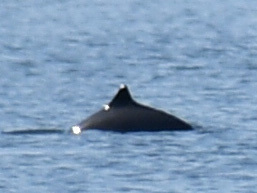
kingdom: Animalia
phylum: Chordata
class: Mammalia
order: Cetacea
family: Phocoenidae
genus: Phocoena
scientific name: Phocoena phocoena
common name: Harbor porpoise
